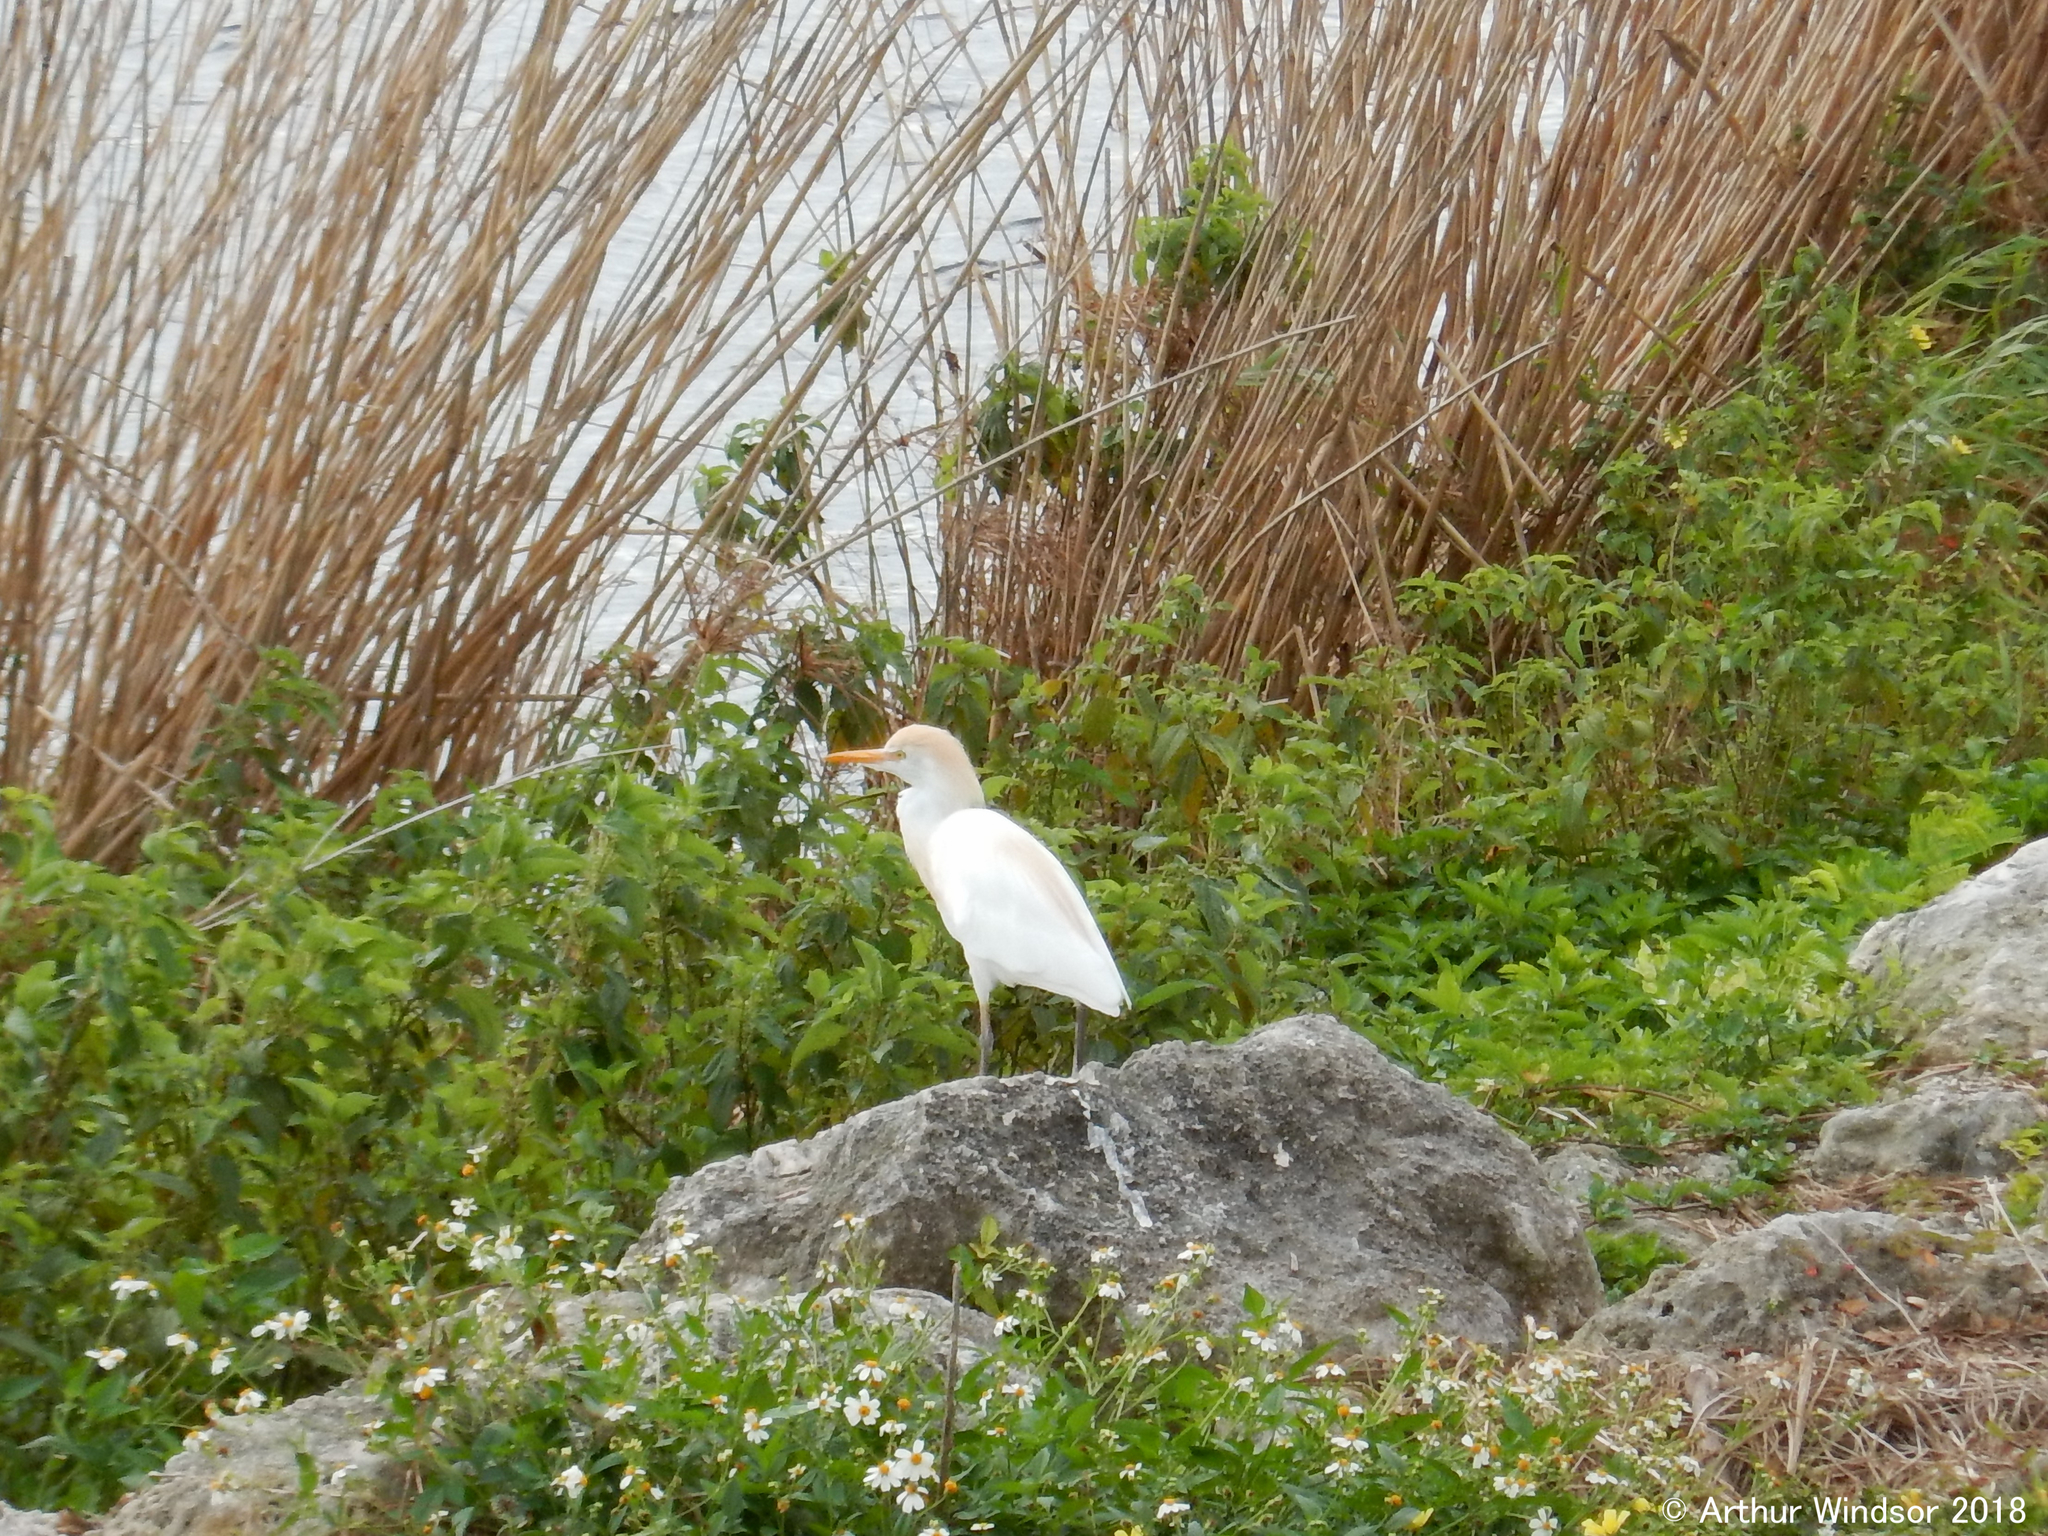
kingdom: Animalia
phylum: Chordata
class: Aves
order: Pelecaniformes
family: Ardeidae
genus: Bubulcus
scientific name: Bubulcus ibis
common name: Cattle egret
